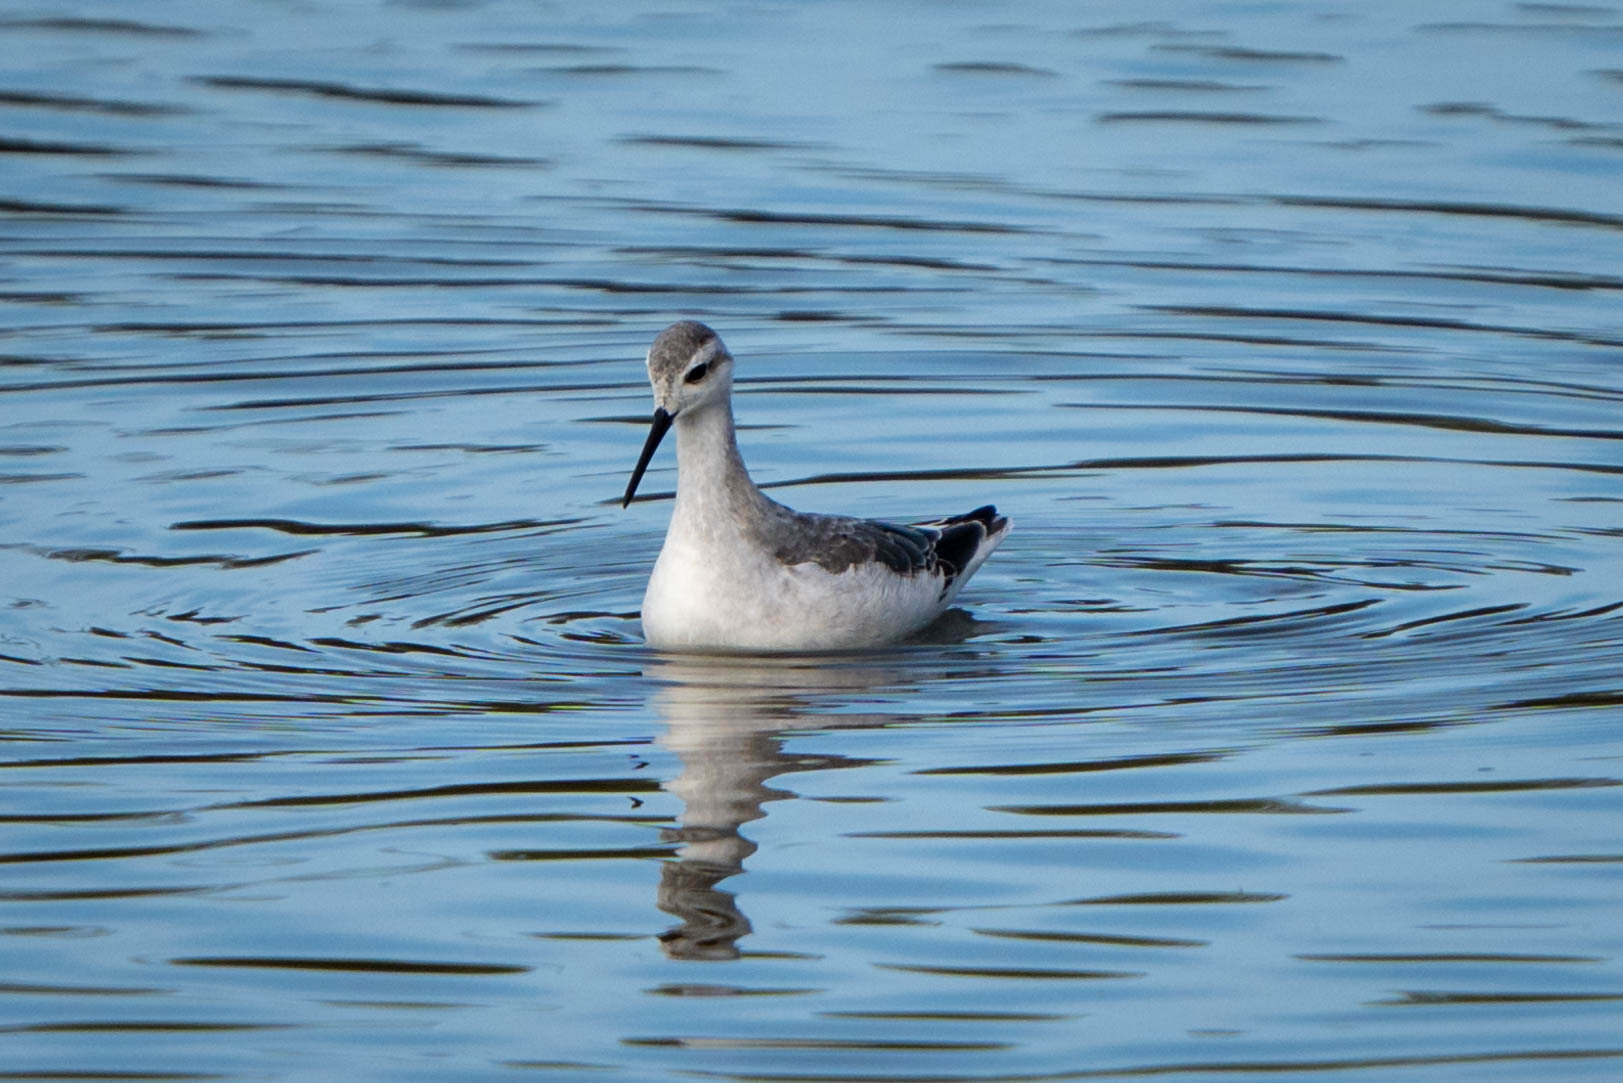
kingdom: Animalia
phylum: Chordata
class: Aves
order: Charadriiformes
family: Scolopacidae
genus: Phalaropus
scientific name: Phalaropus tricolor
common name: Wilson's phalarope
